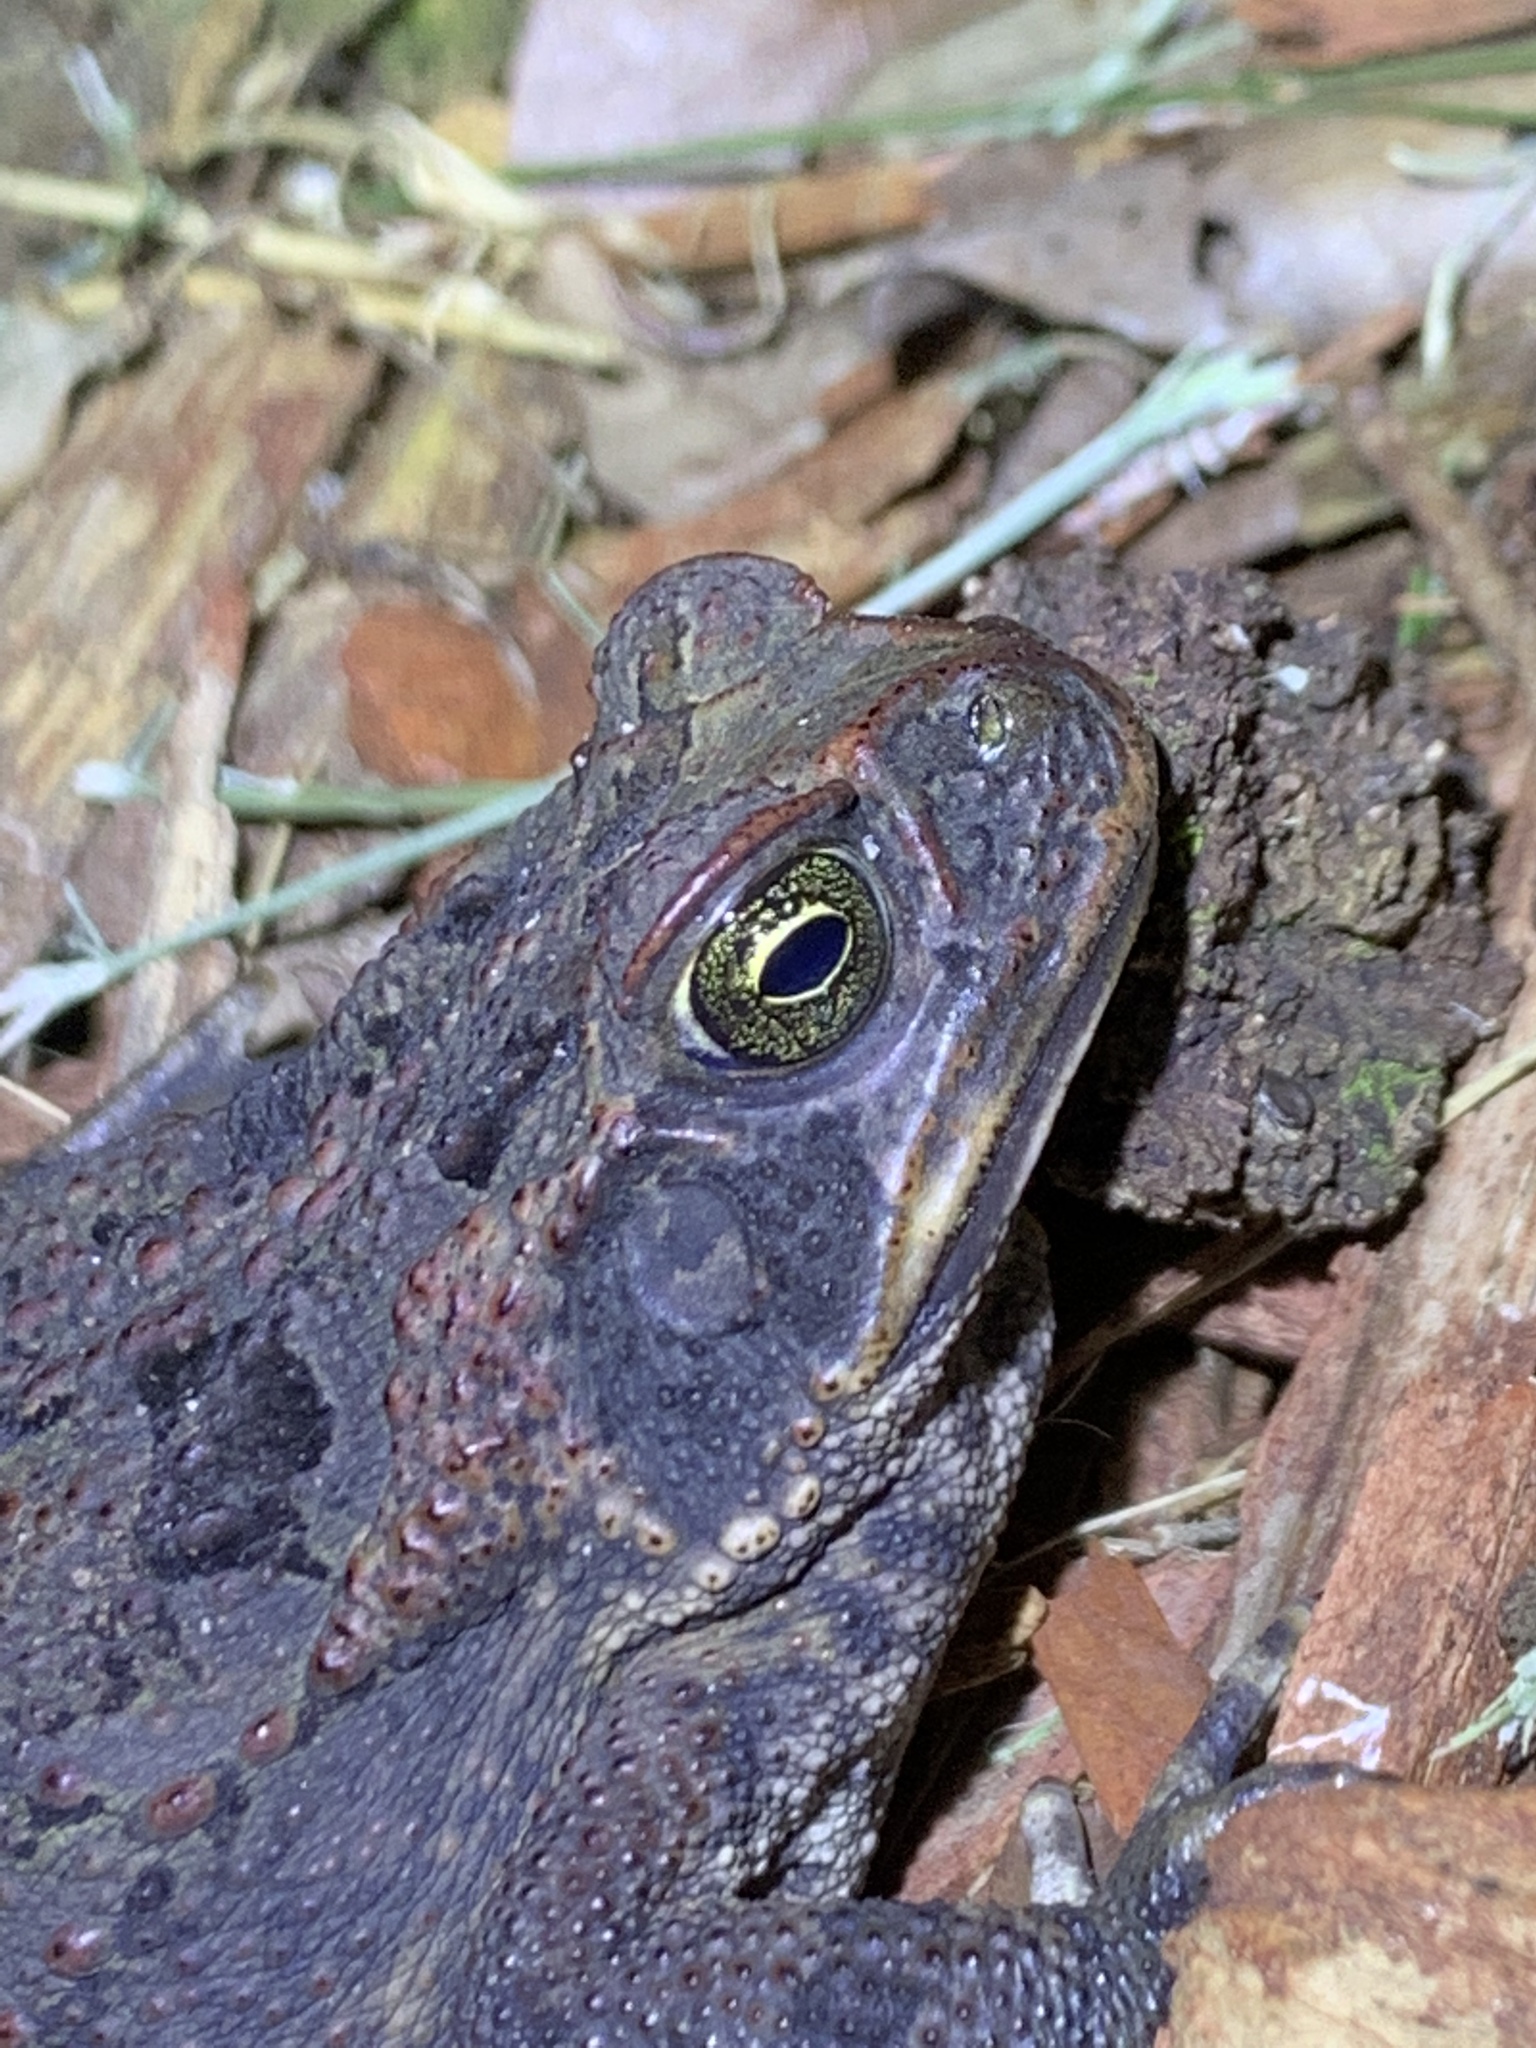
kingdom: Animalia
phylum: Chordata
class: Amphibia
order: Anura
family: Bufonidae
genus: Rhinella
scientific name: Rhinella marina
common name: Cane toad
